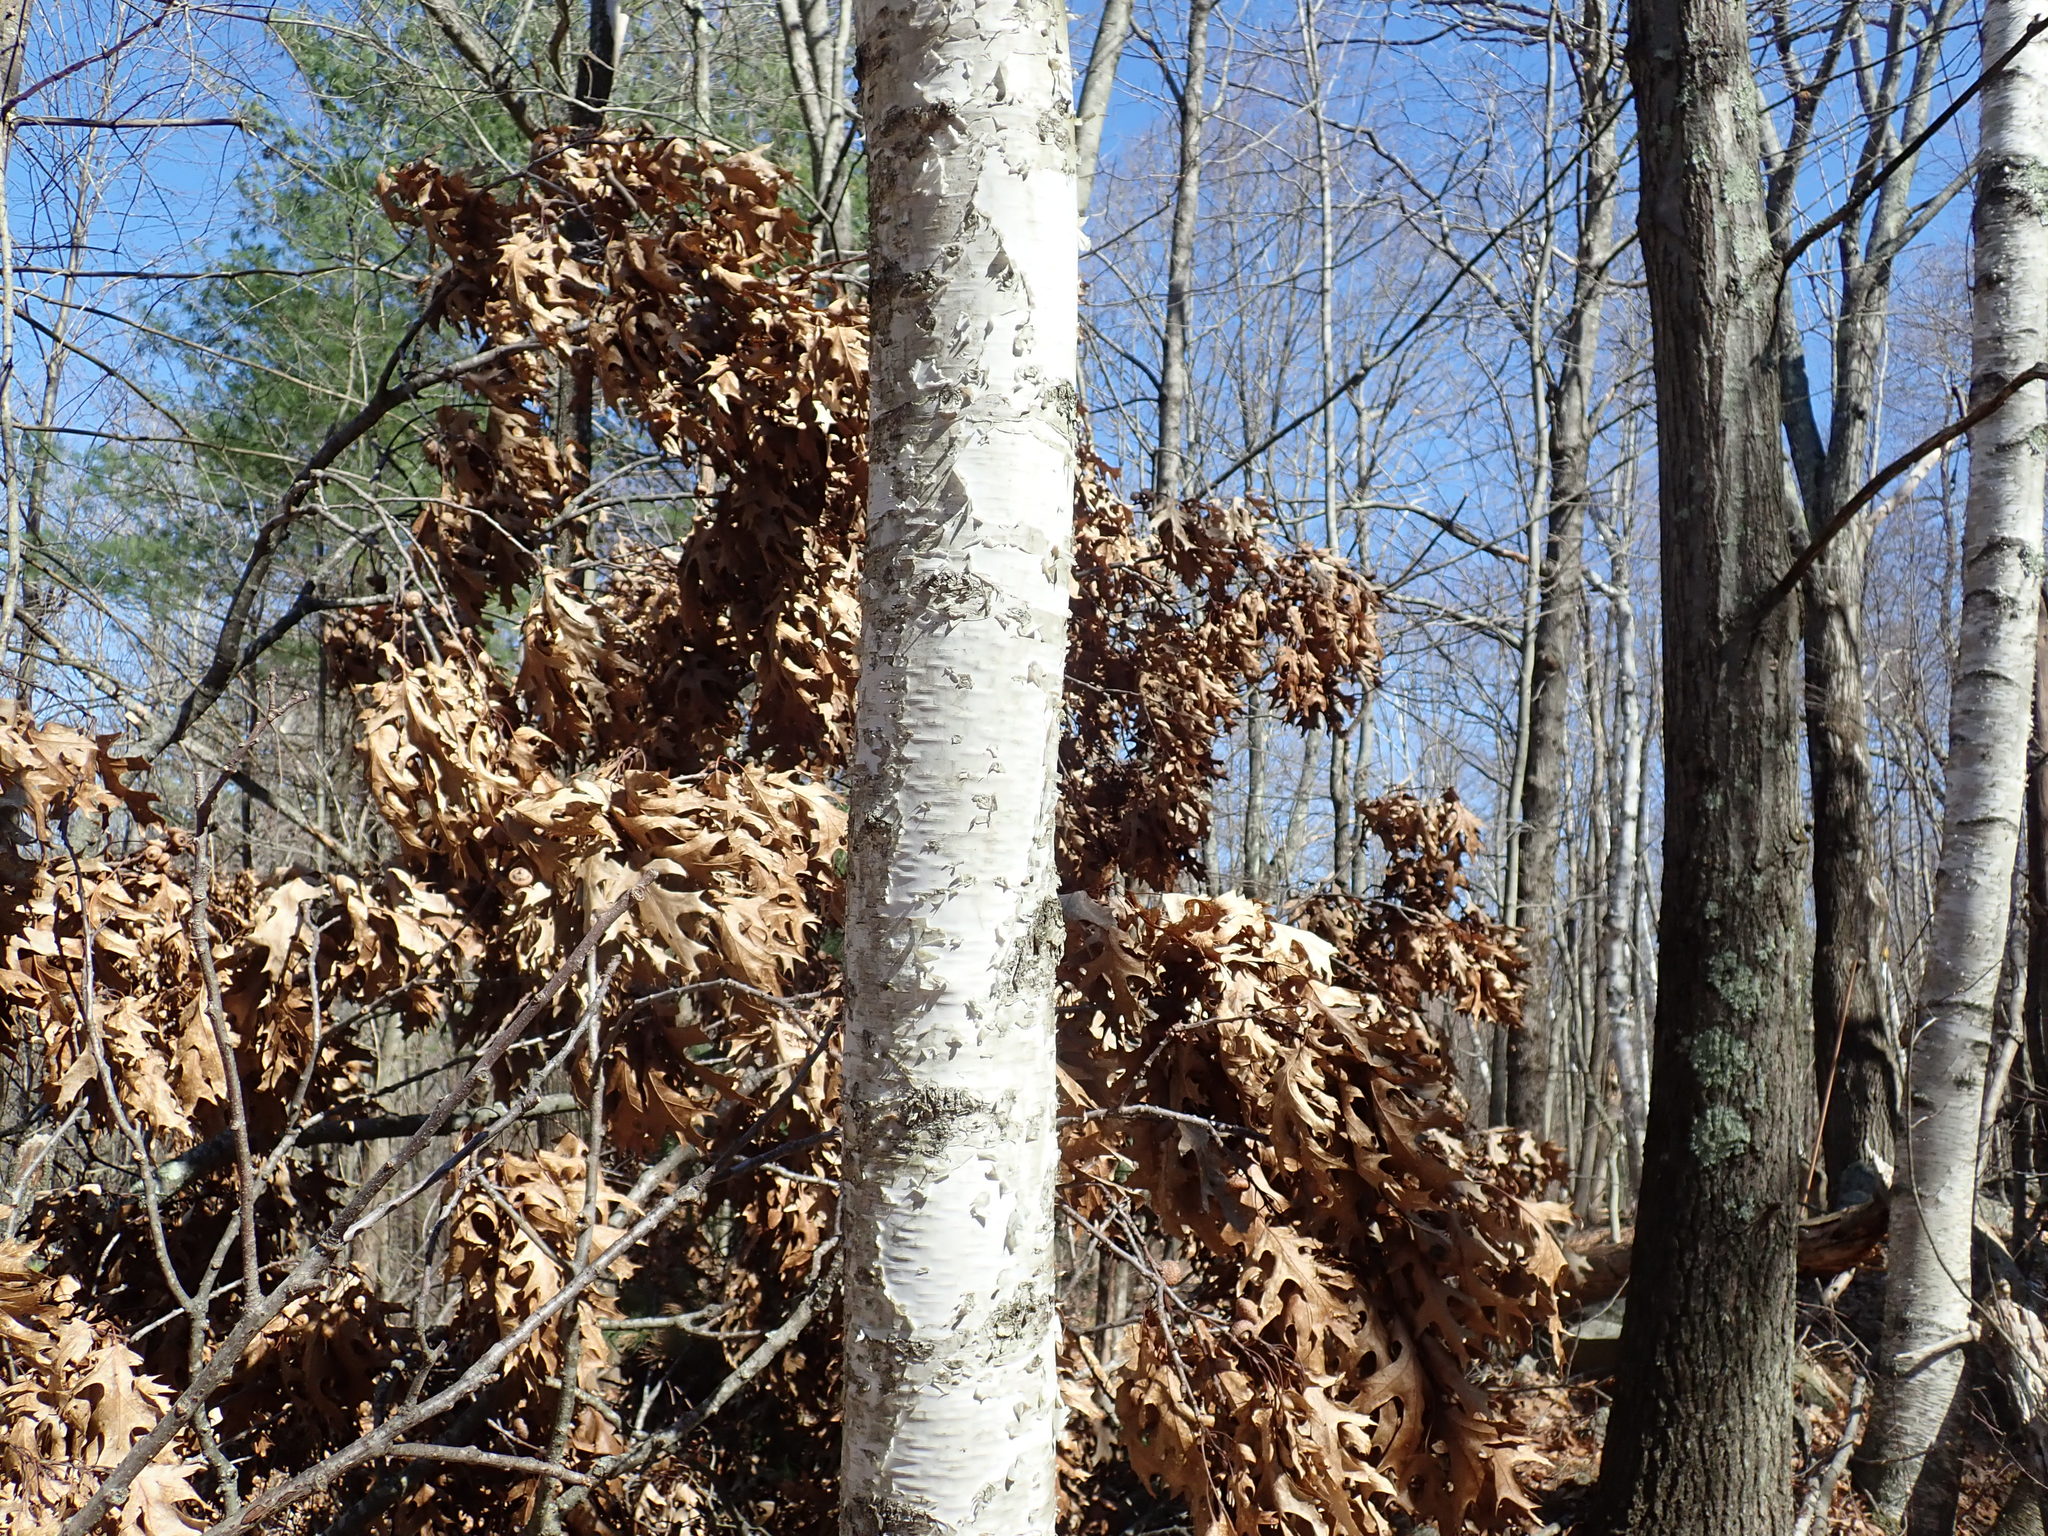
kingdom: Plantae
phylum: Tracheophyta
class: Magnoliopsida
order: Fagales
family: Betulaceae
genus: Betula
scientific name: Betula papyrifera
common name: Paper birch
